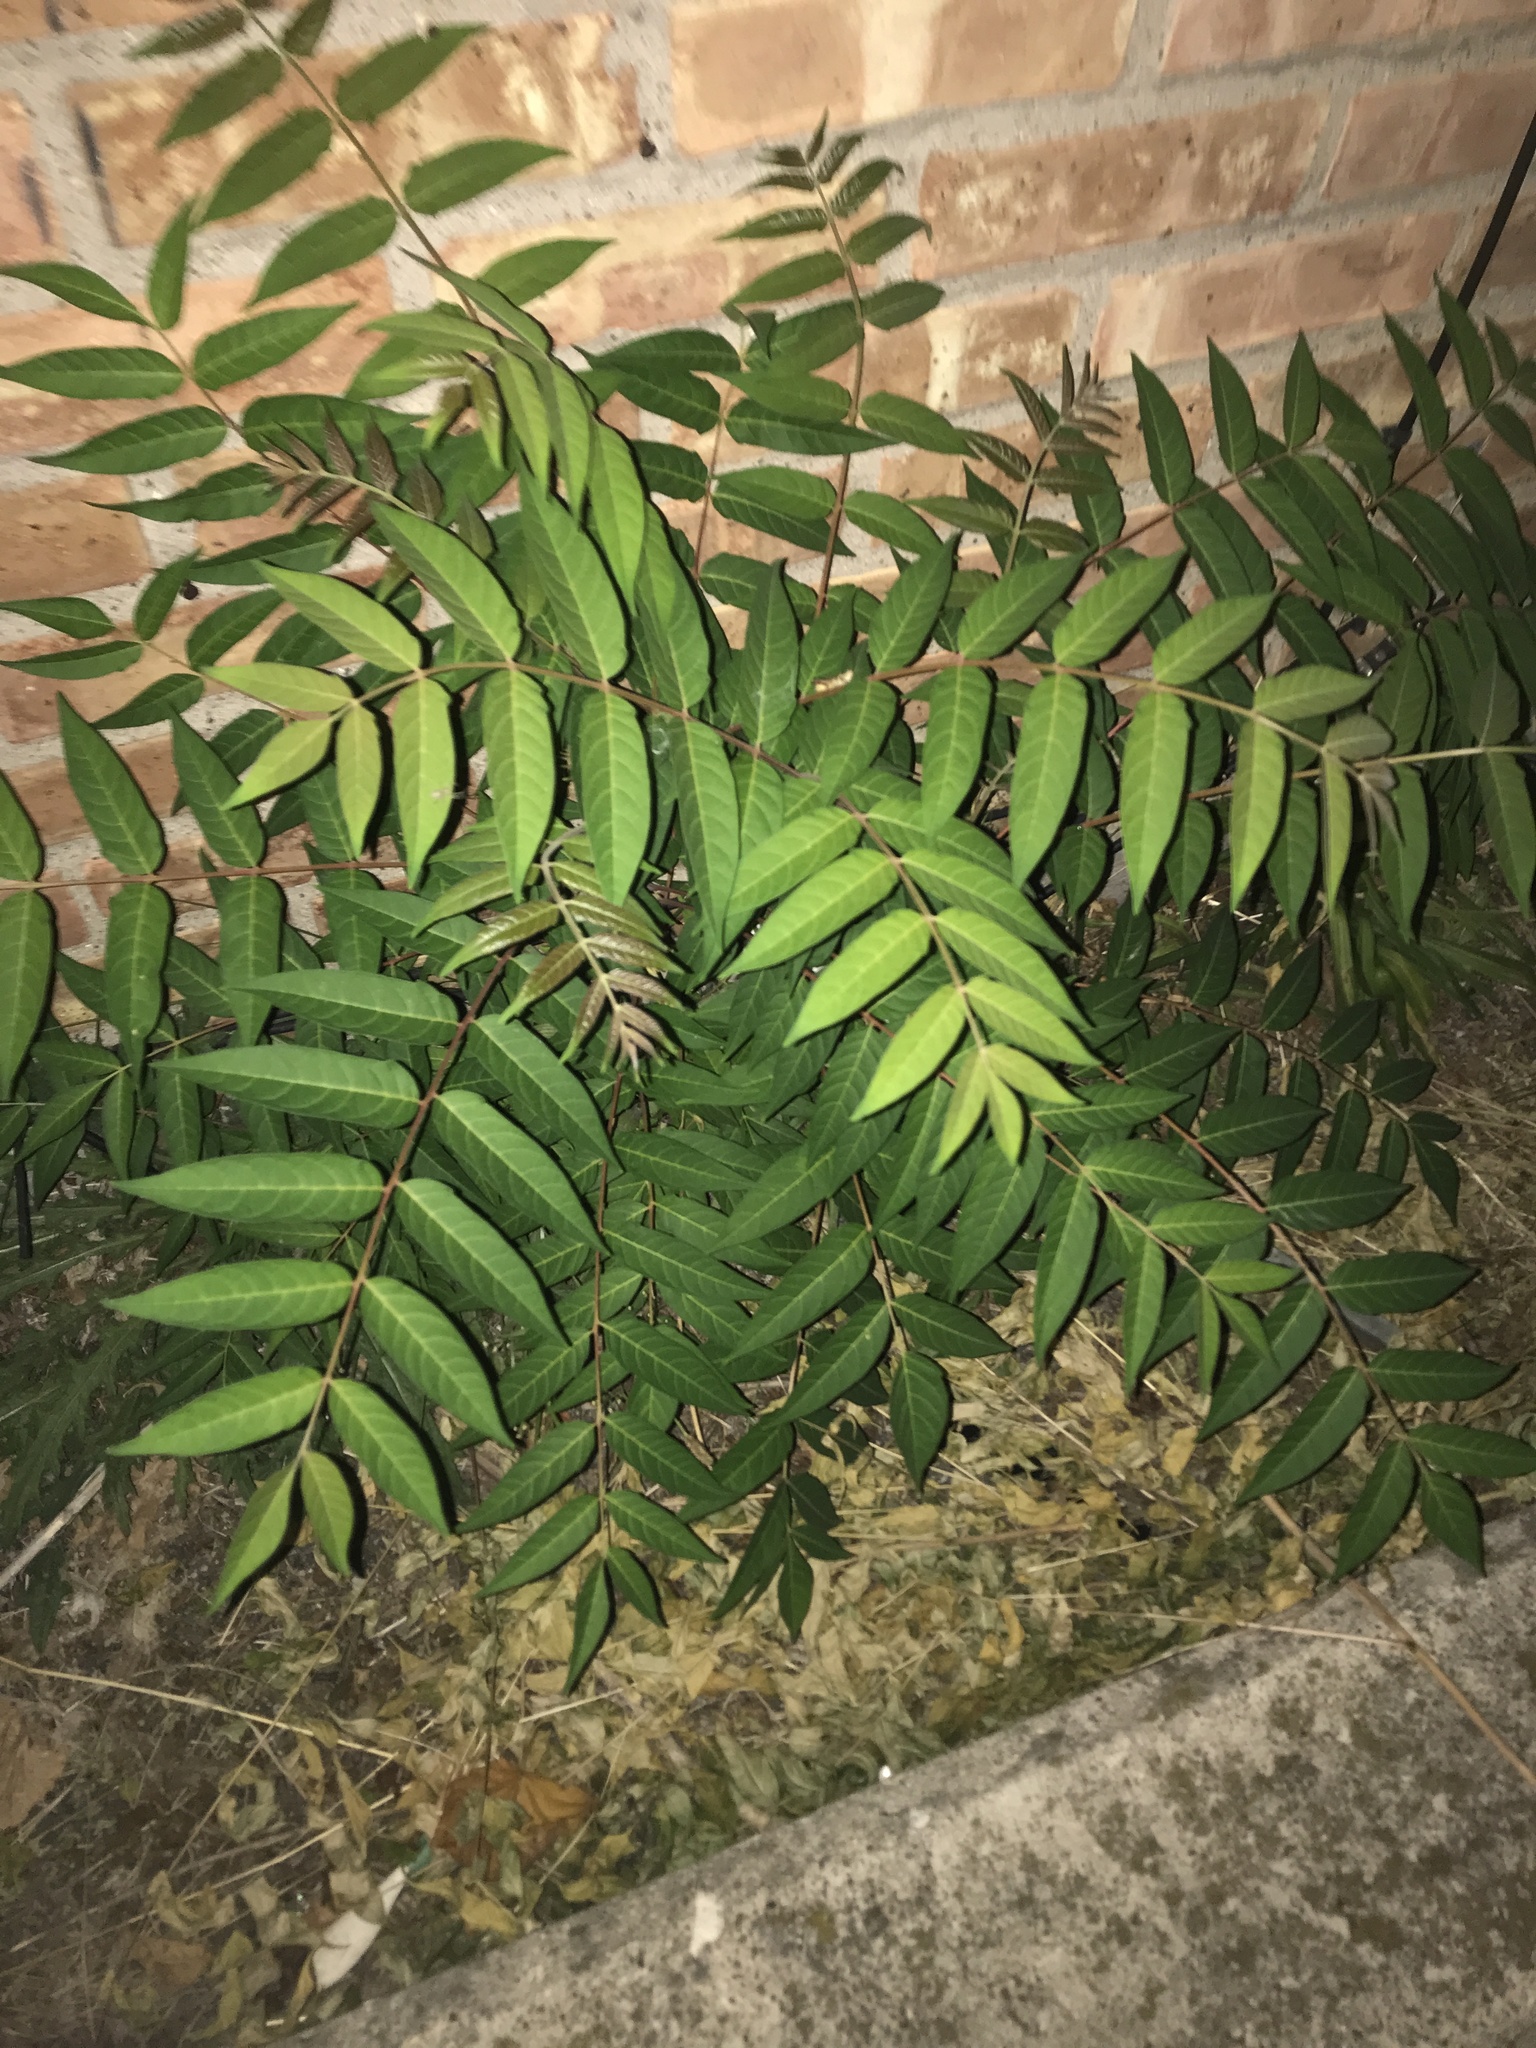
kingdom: Plantae
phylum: Tracheophyta
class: Magnoliopsida
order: Sapindales
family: Simaroubaceae
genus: Ailanthus
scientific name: Ailanthus altissima
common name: Tree-of-heaven
